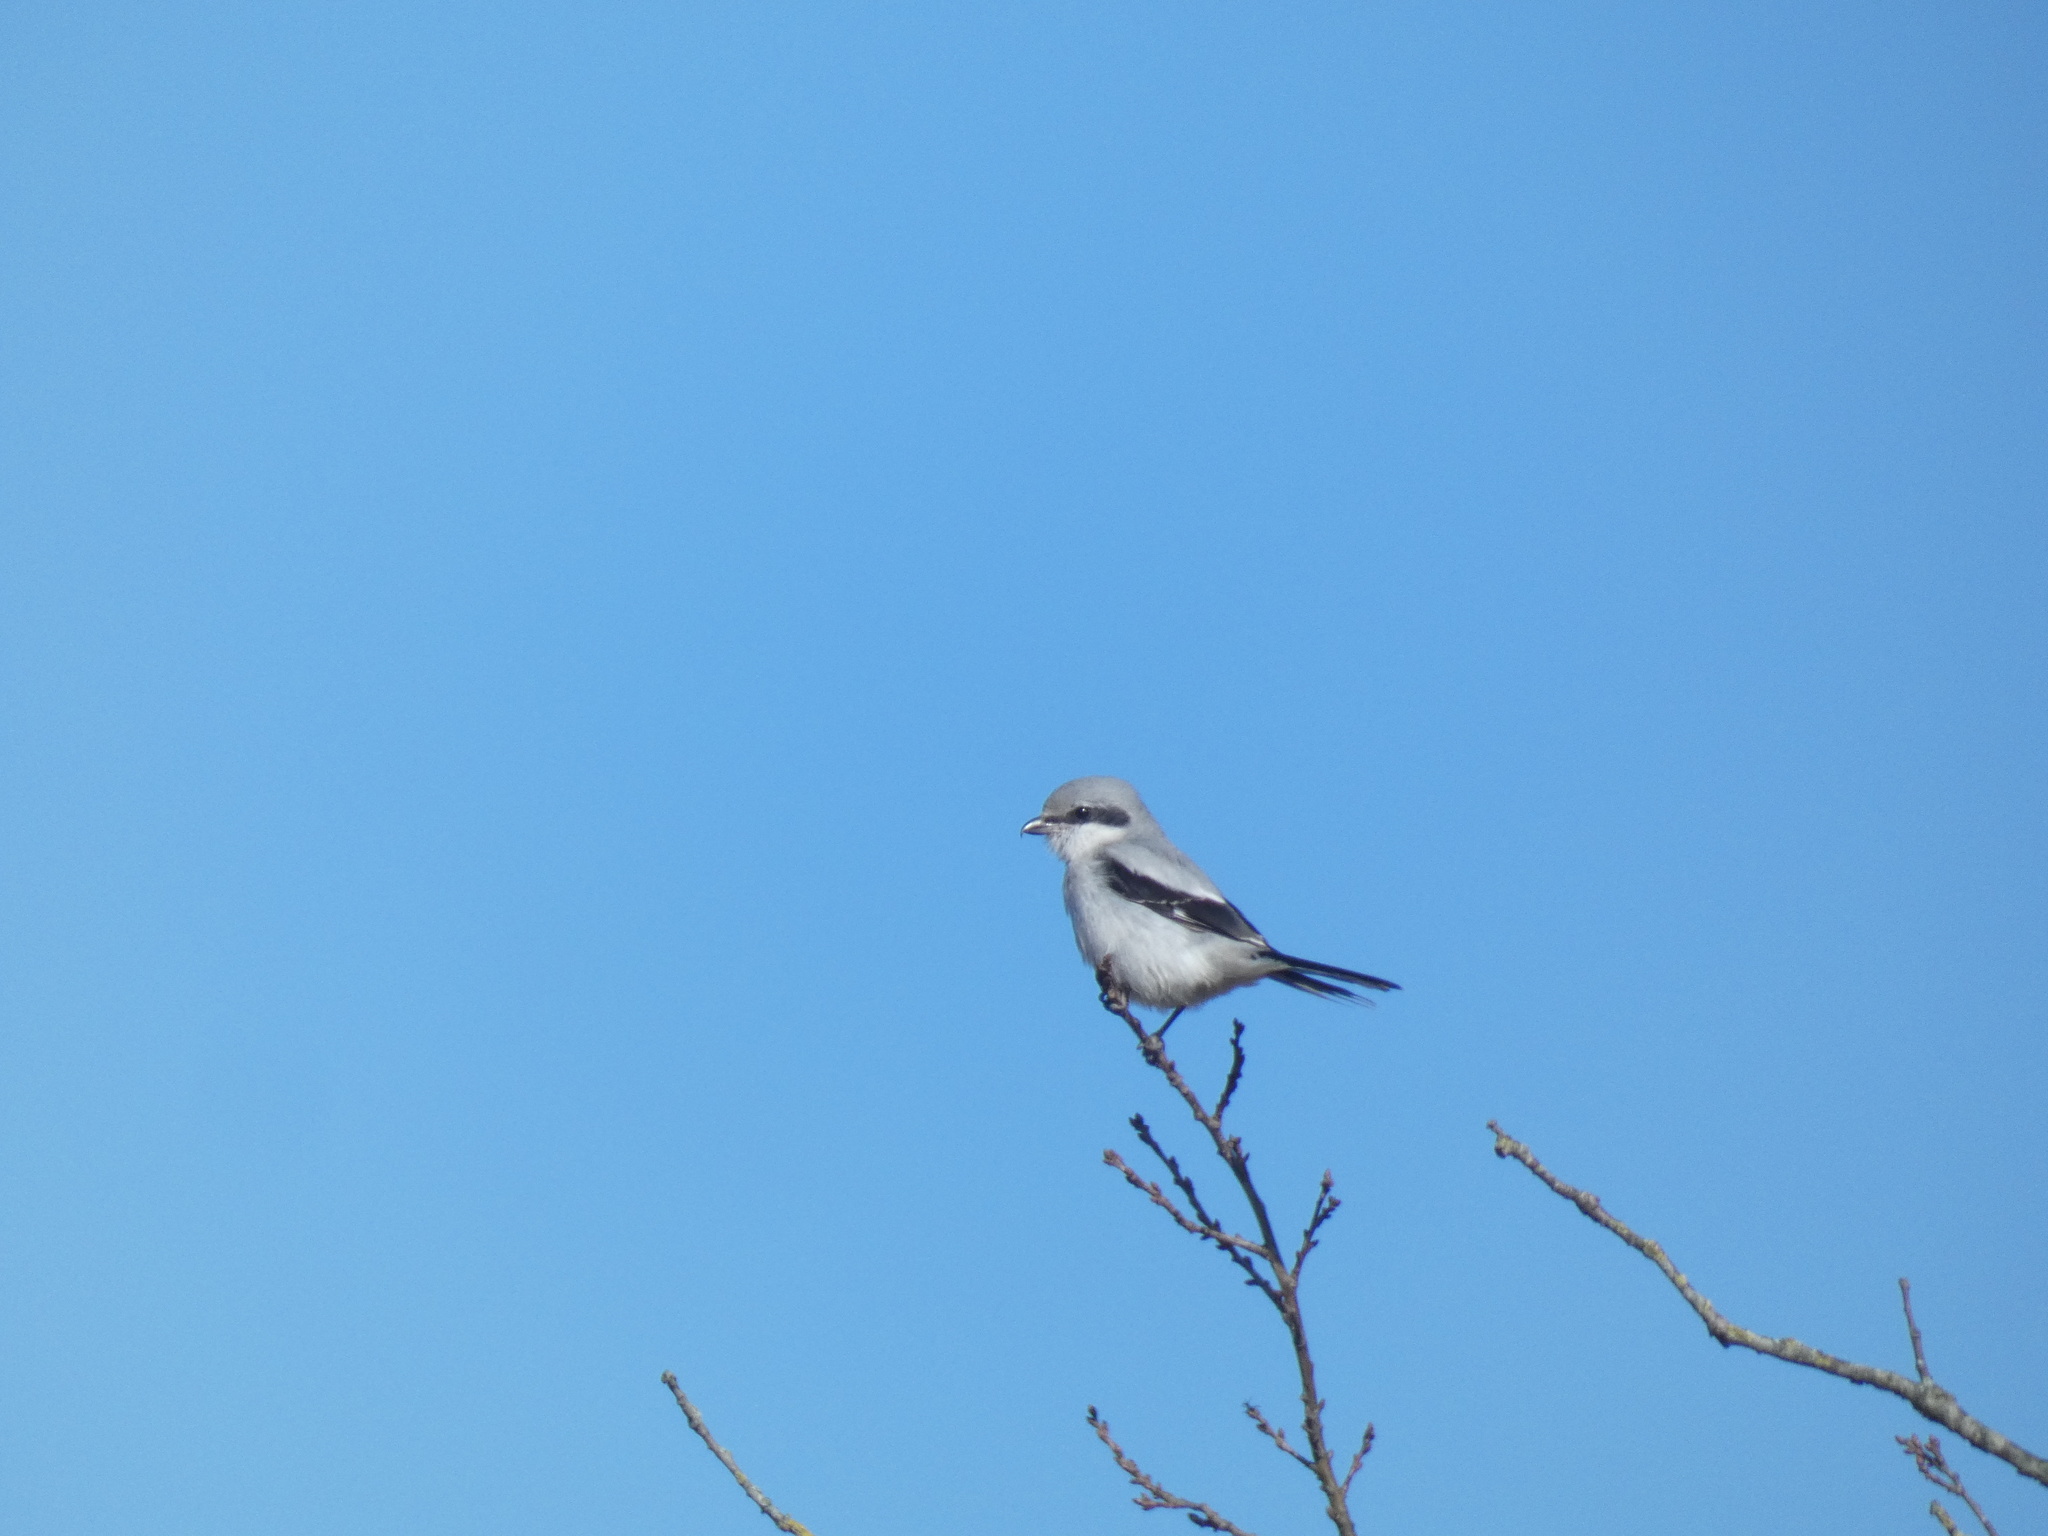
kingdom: Animalia
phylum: Chordata
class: Aves
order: Passeriformes
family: Laniidae
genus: Lanius
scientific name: Lanius excubitor
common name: Great grey shrike
